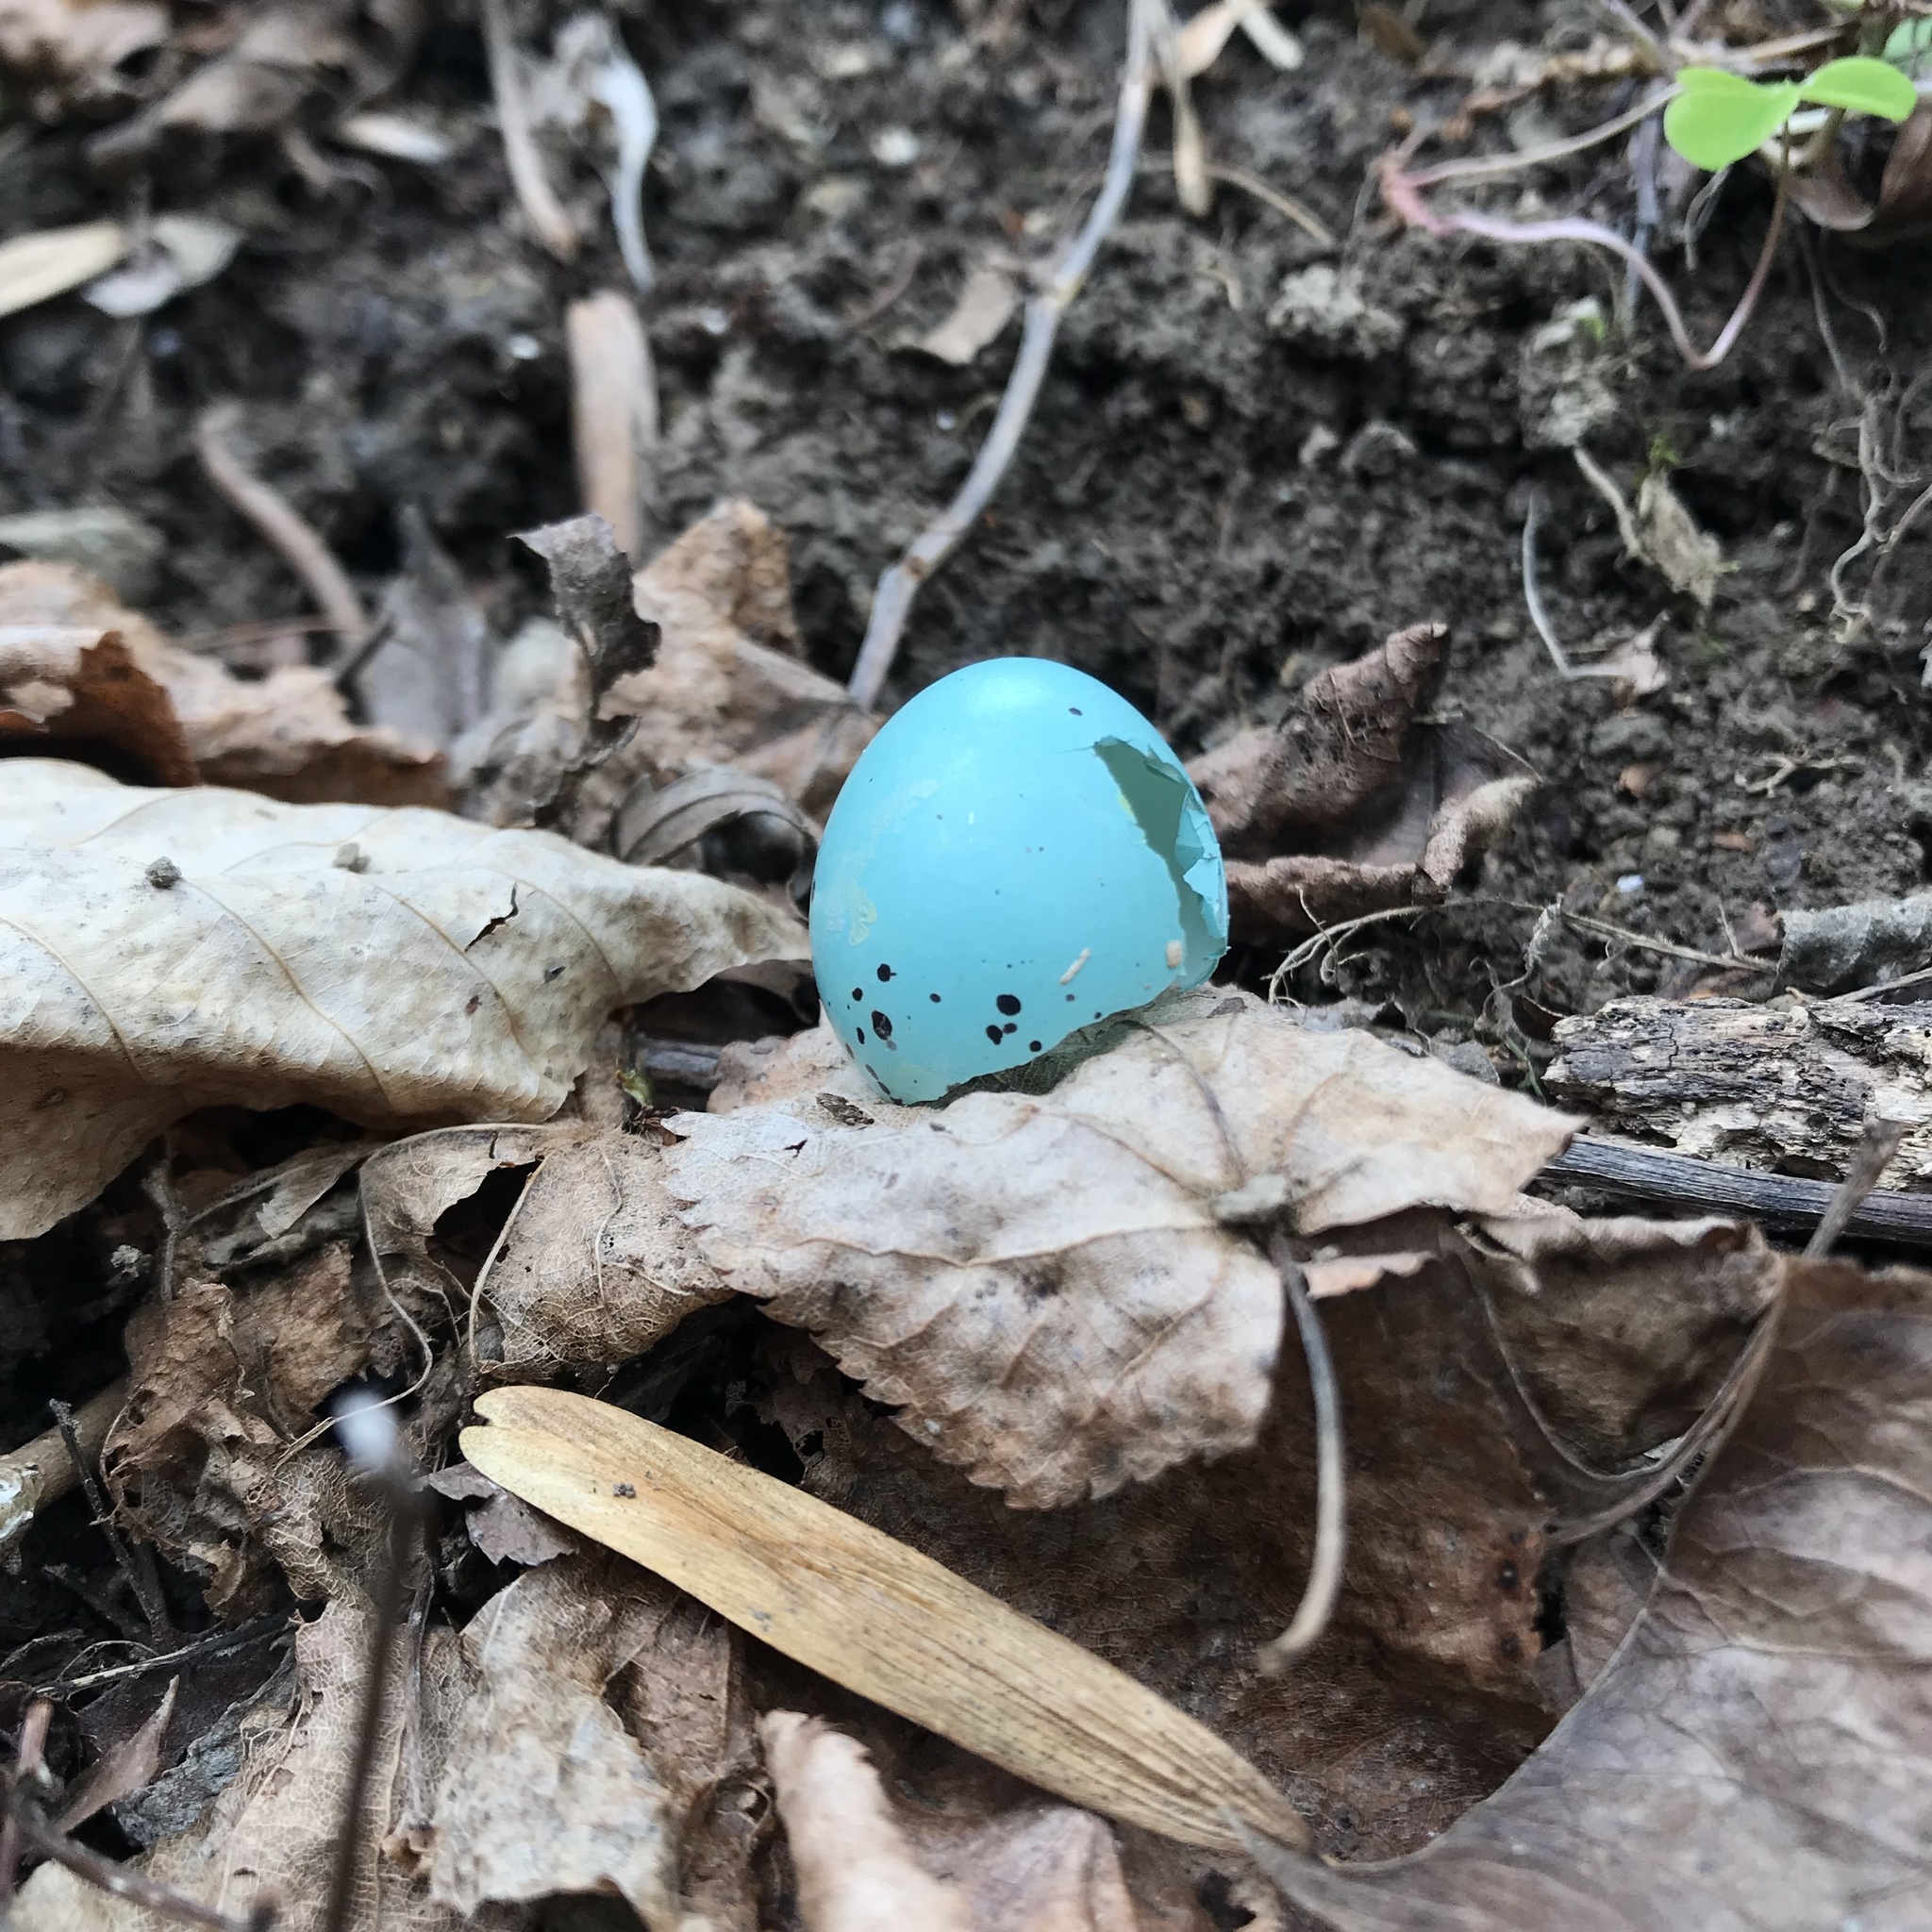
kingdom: Animalia
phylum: Chordata
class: Aves
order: Passeriformes
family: Turdidae
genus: Turdus
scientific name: Turdus philomelos
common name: Song thrush
